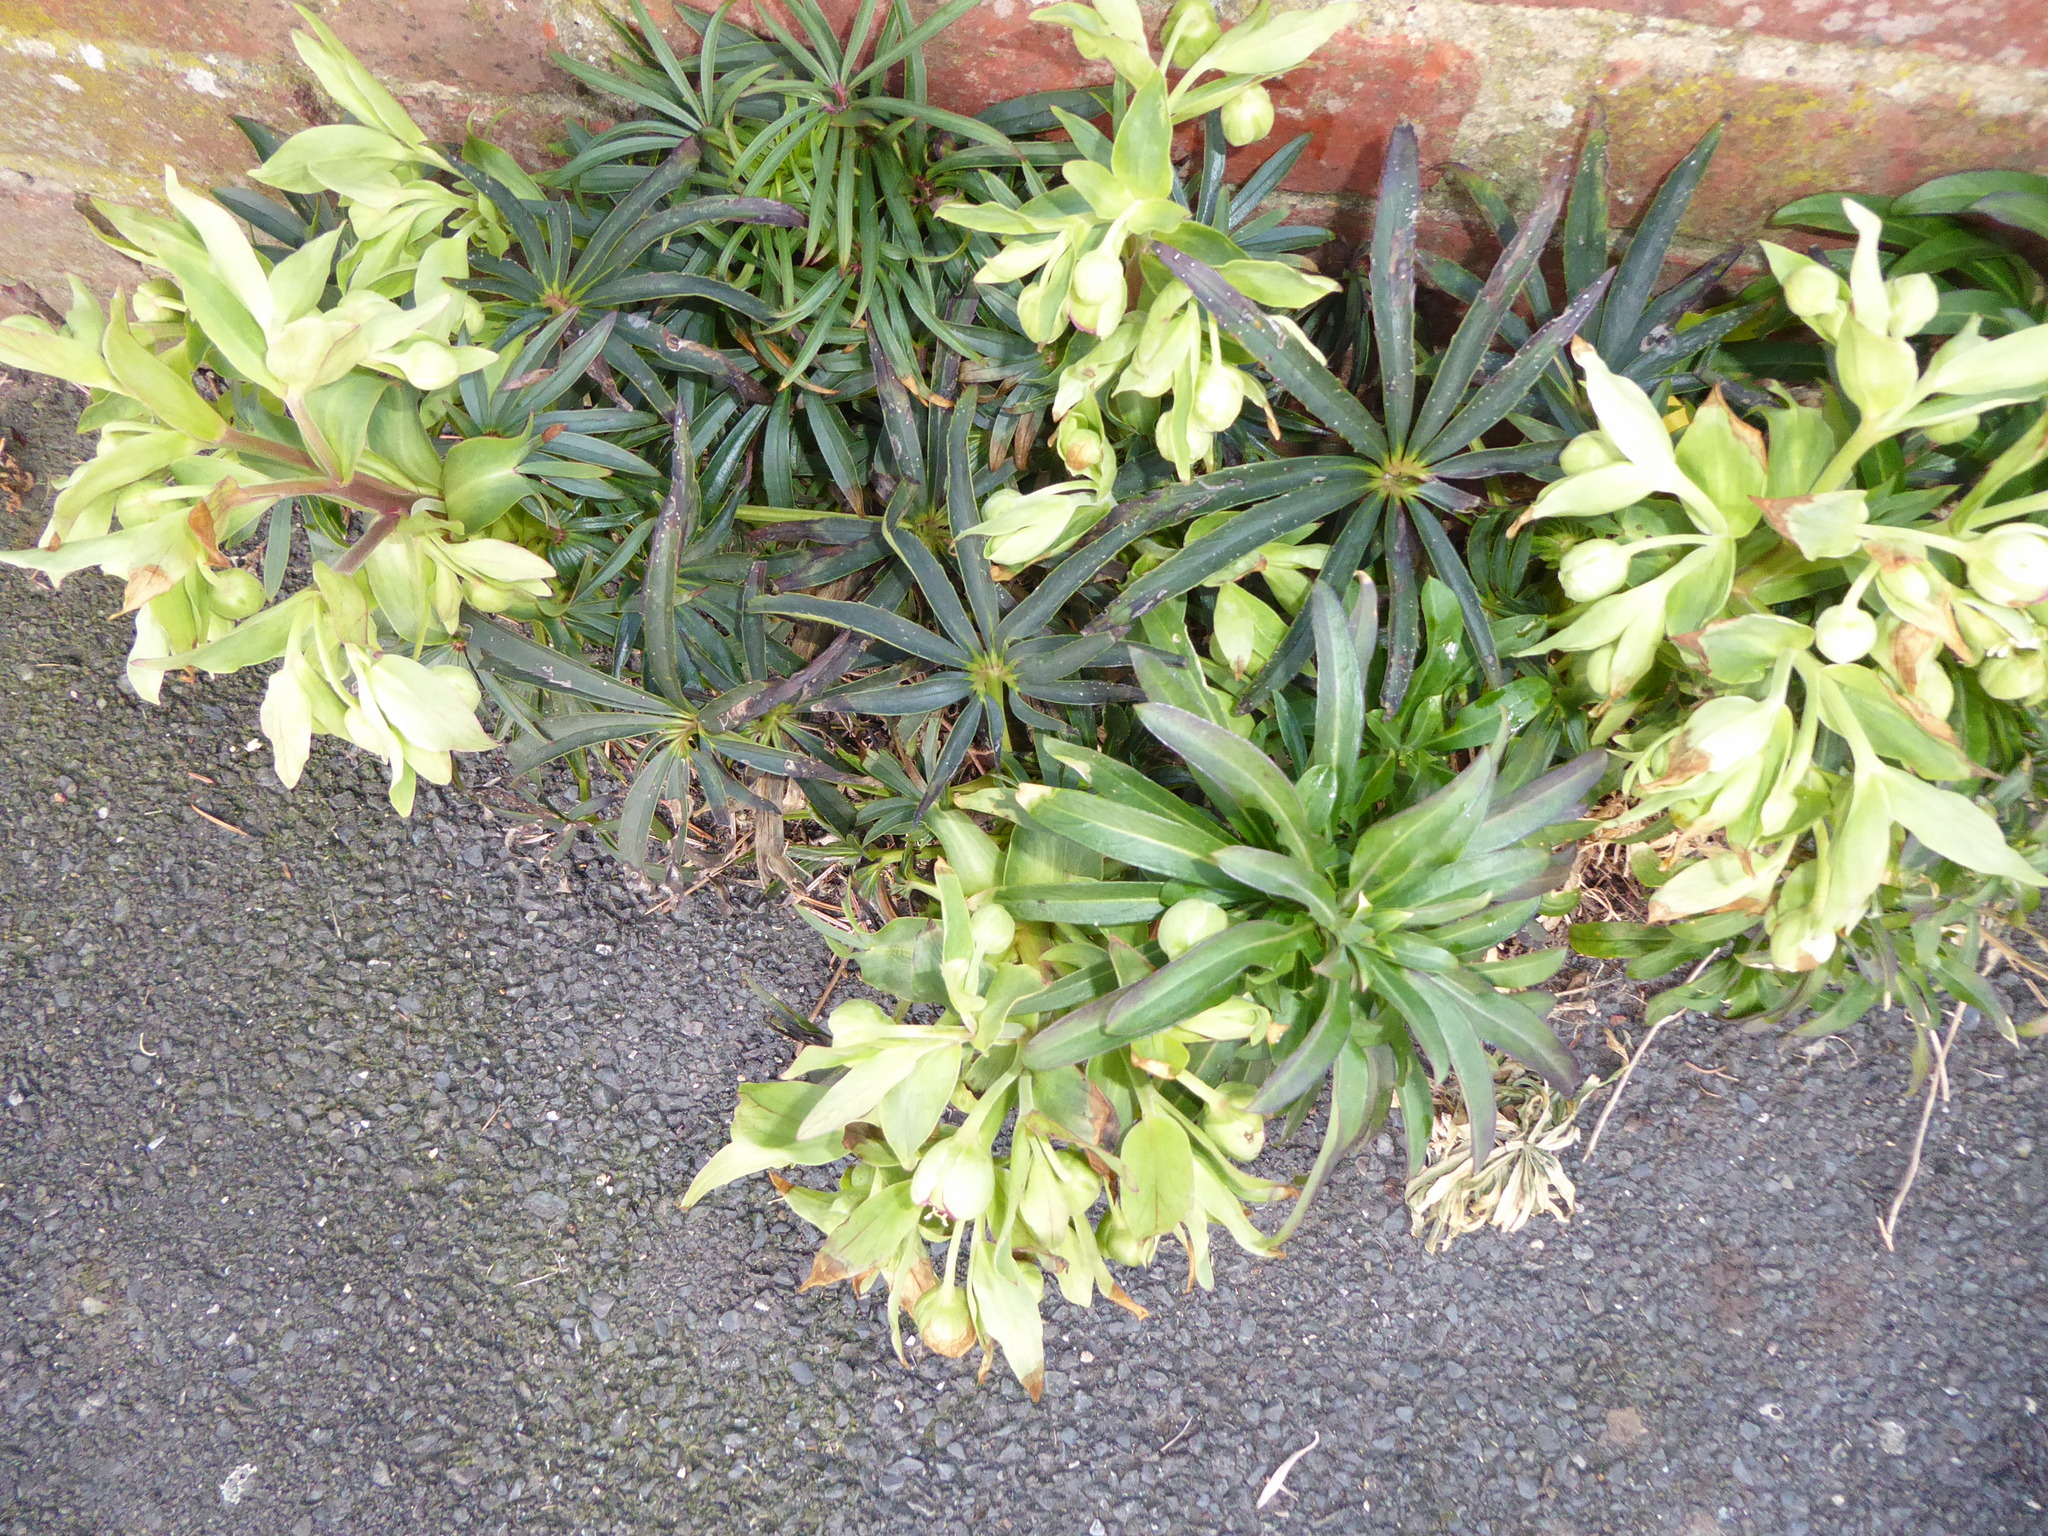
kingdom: Plantae
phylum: Tracheophyta
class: Magnoliopsida
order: Ranunculales
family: Ranunculaceae
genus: Helleborus
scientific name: Helleborus foetidus
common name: Stinking hellebore
